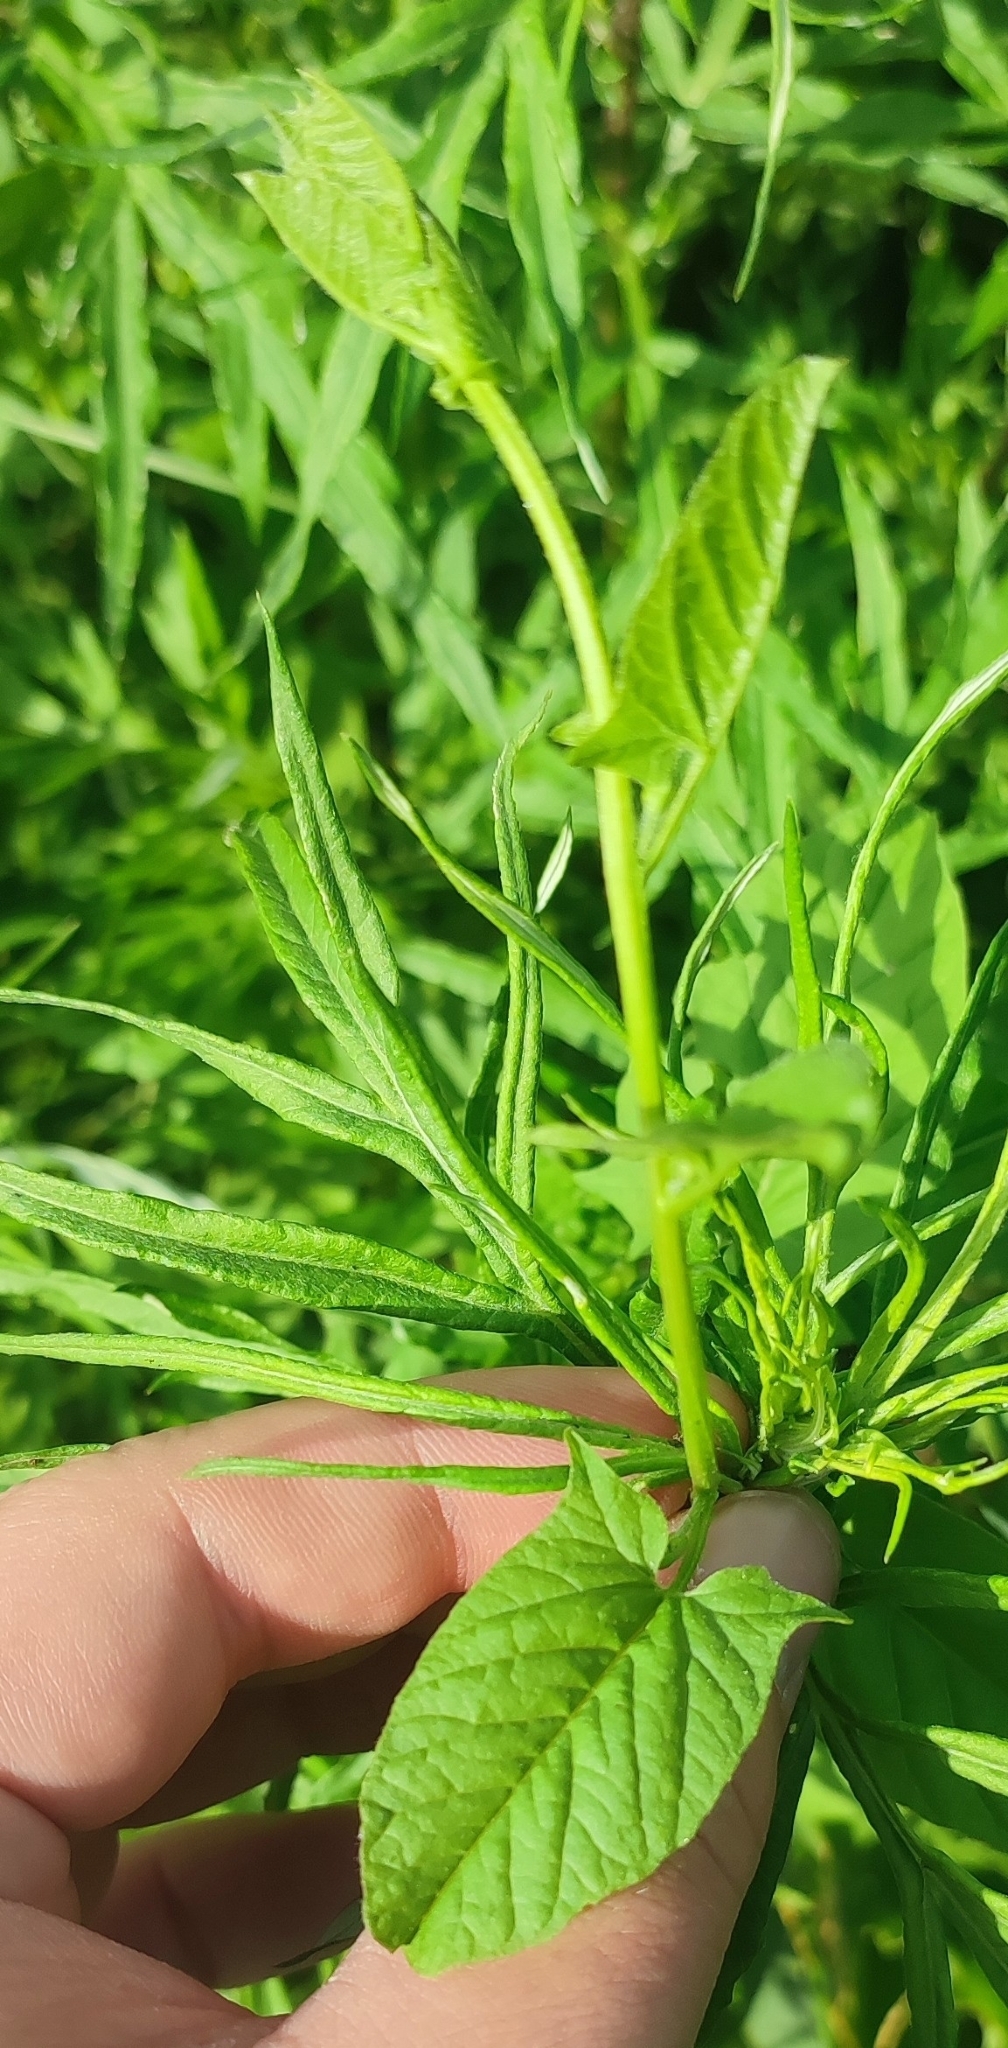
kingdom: Plantae
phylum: Tracheophyta
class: Magnoliopsida
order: Solanales
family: Convolvulaceae
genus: Convolvulus
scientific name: Convolvulus arvensis
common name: Field bindweed
